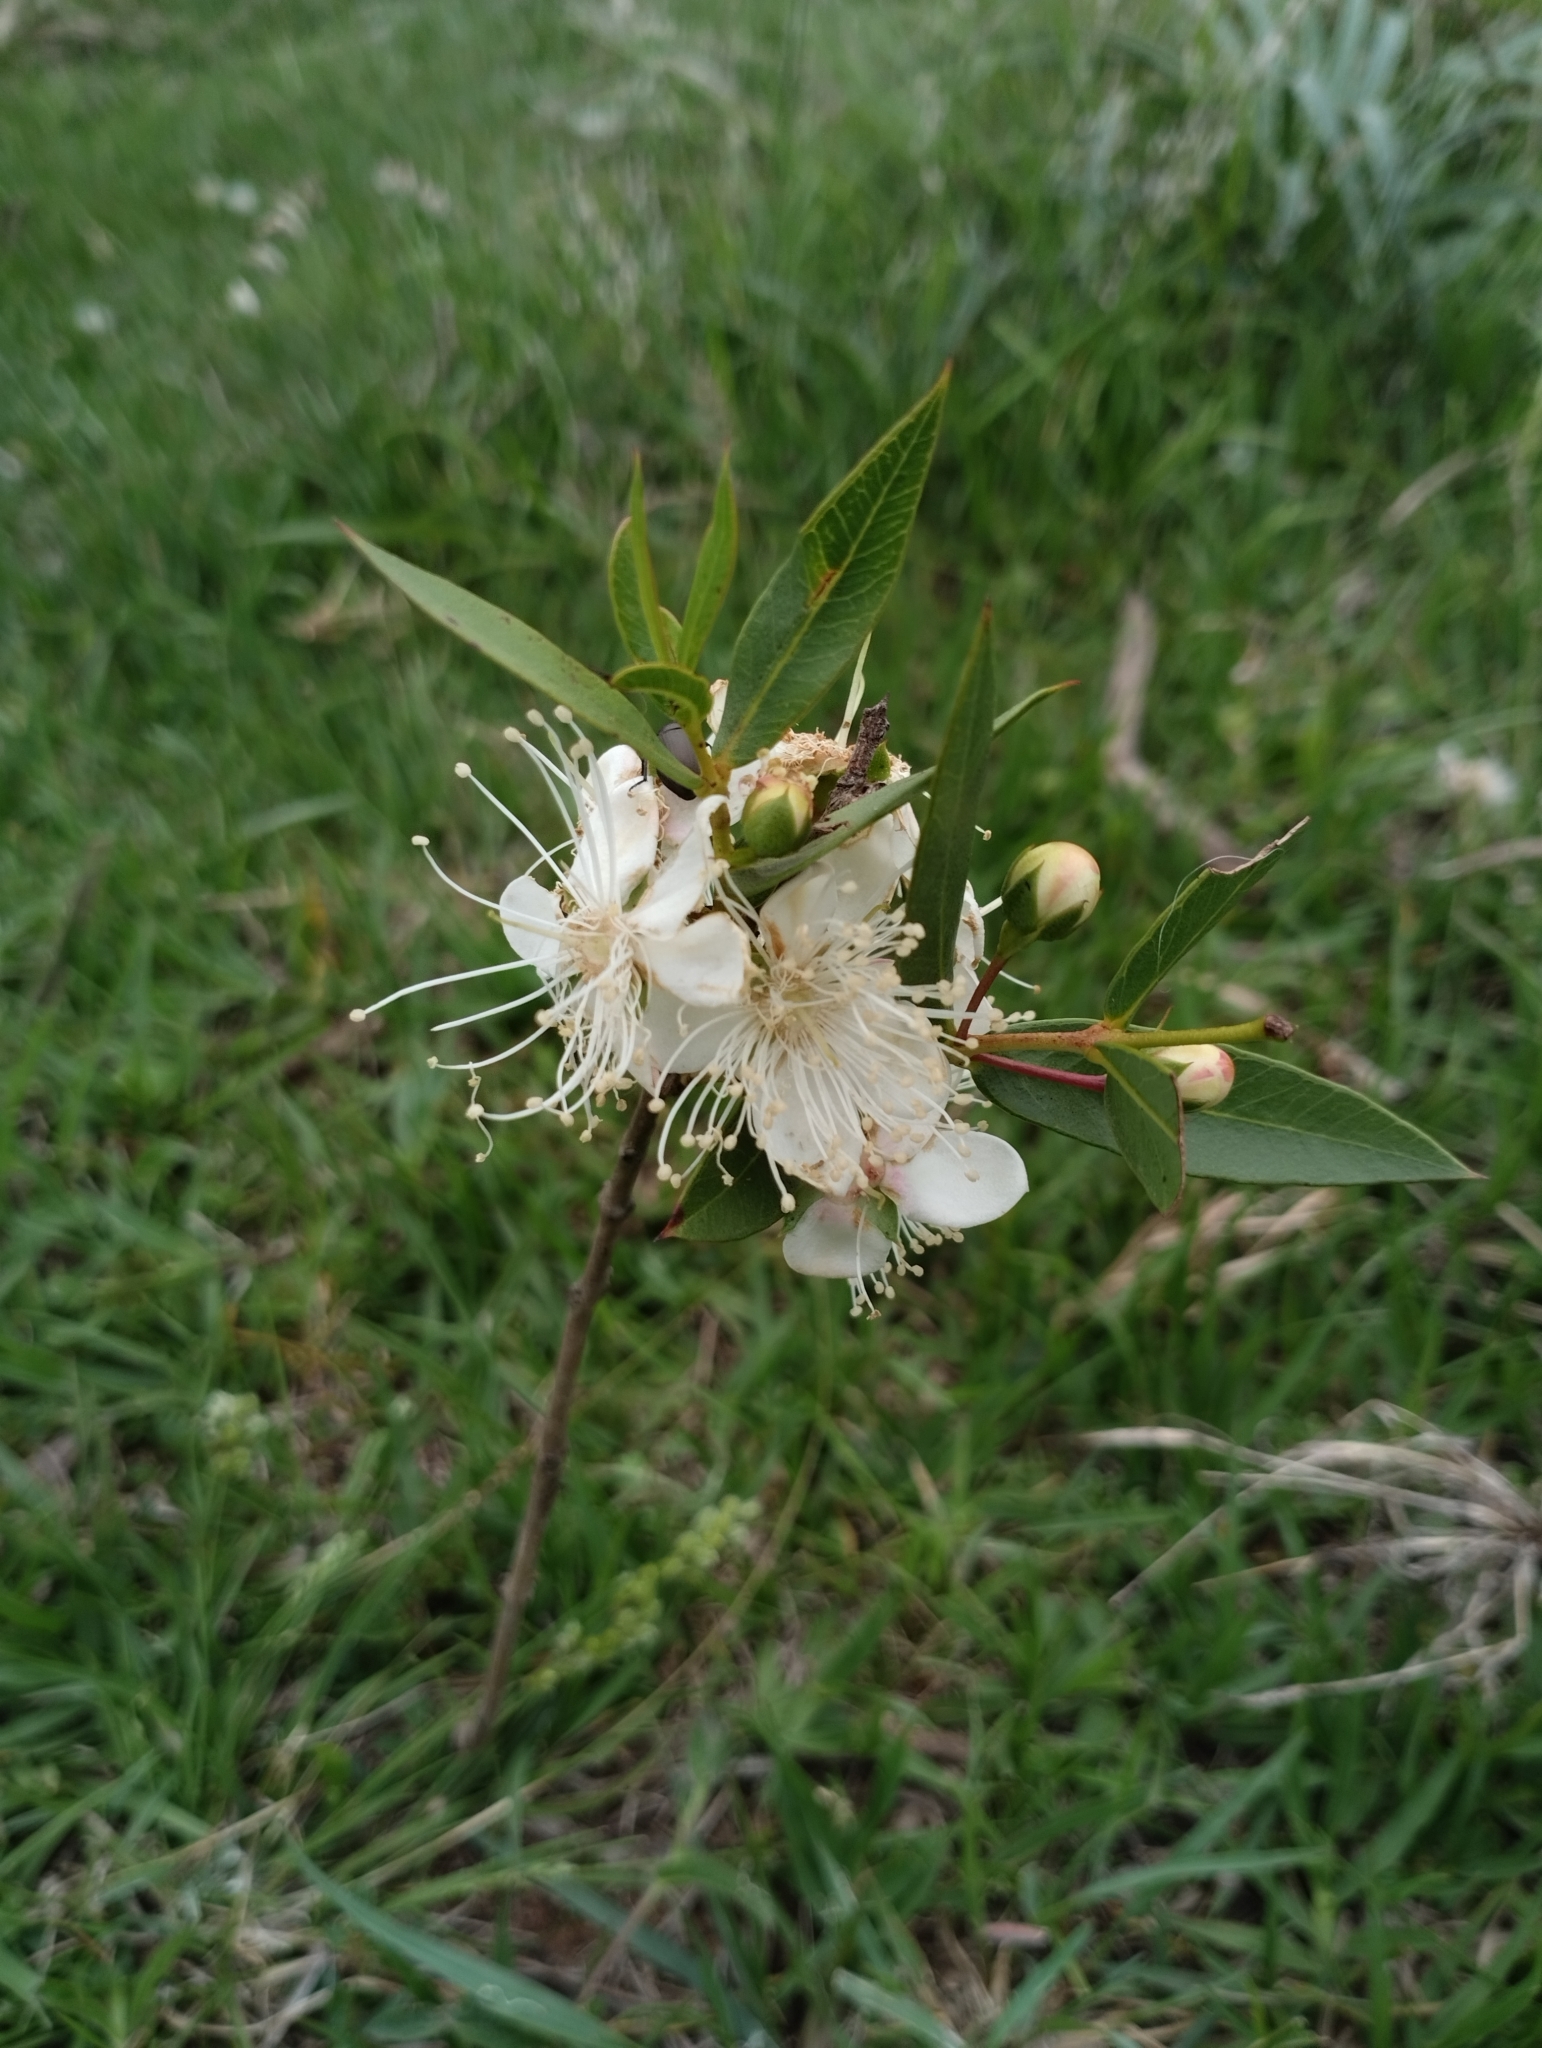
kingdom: Plantae
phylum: Tracheophyta
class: Magnoliopsida
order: Myrtales
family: Myrtaceae
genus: Psidium
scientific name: Psidium salutare
